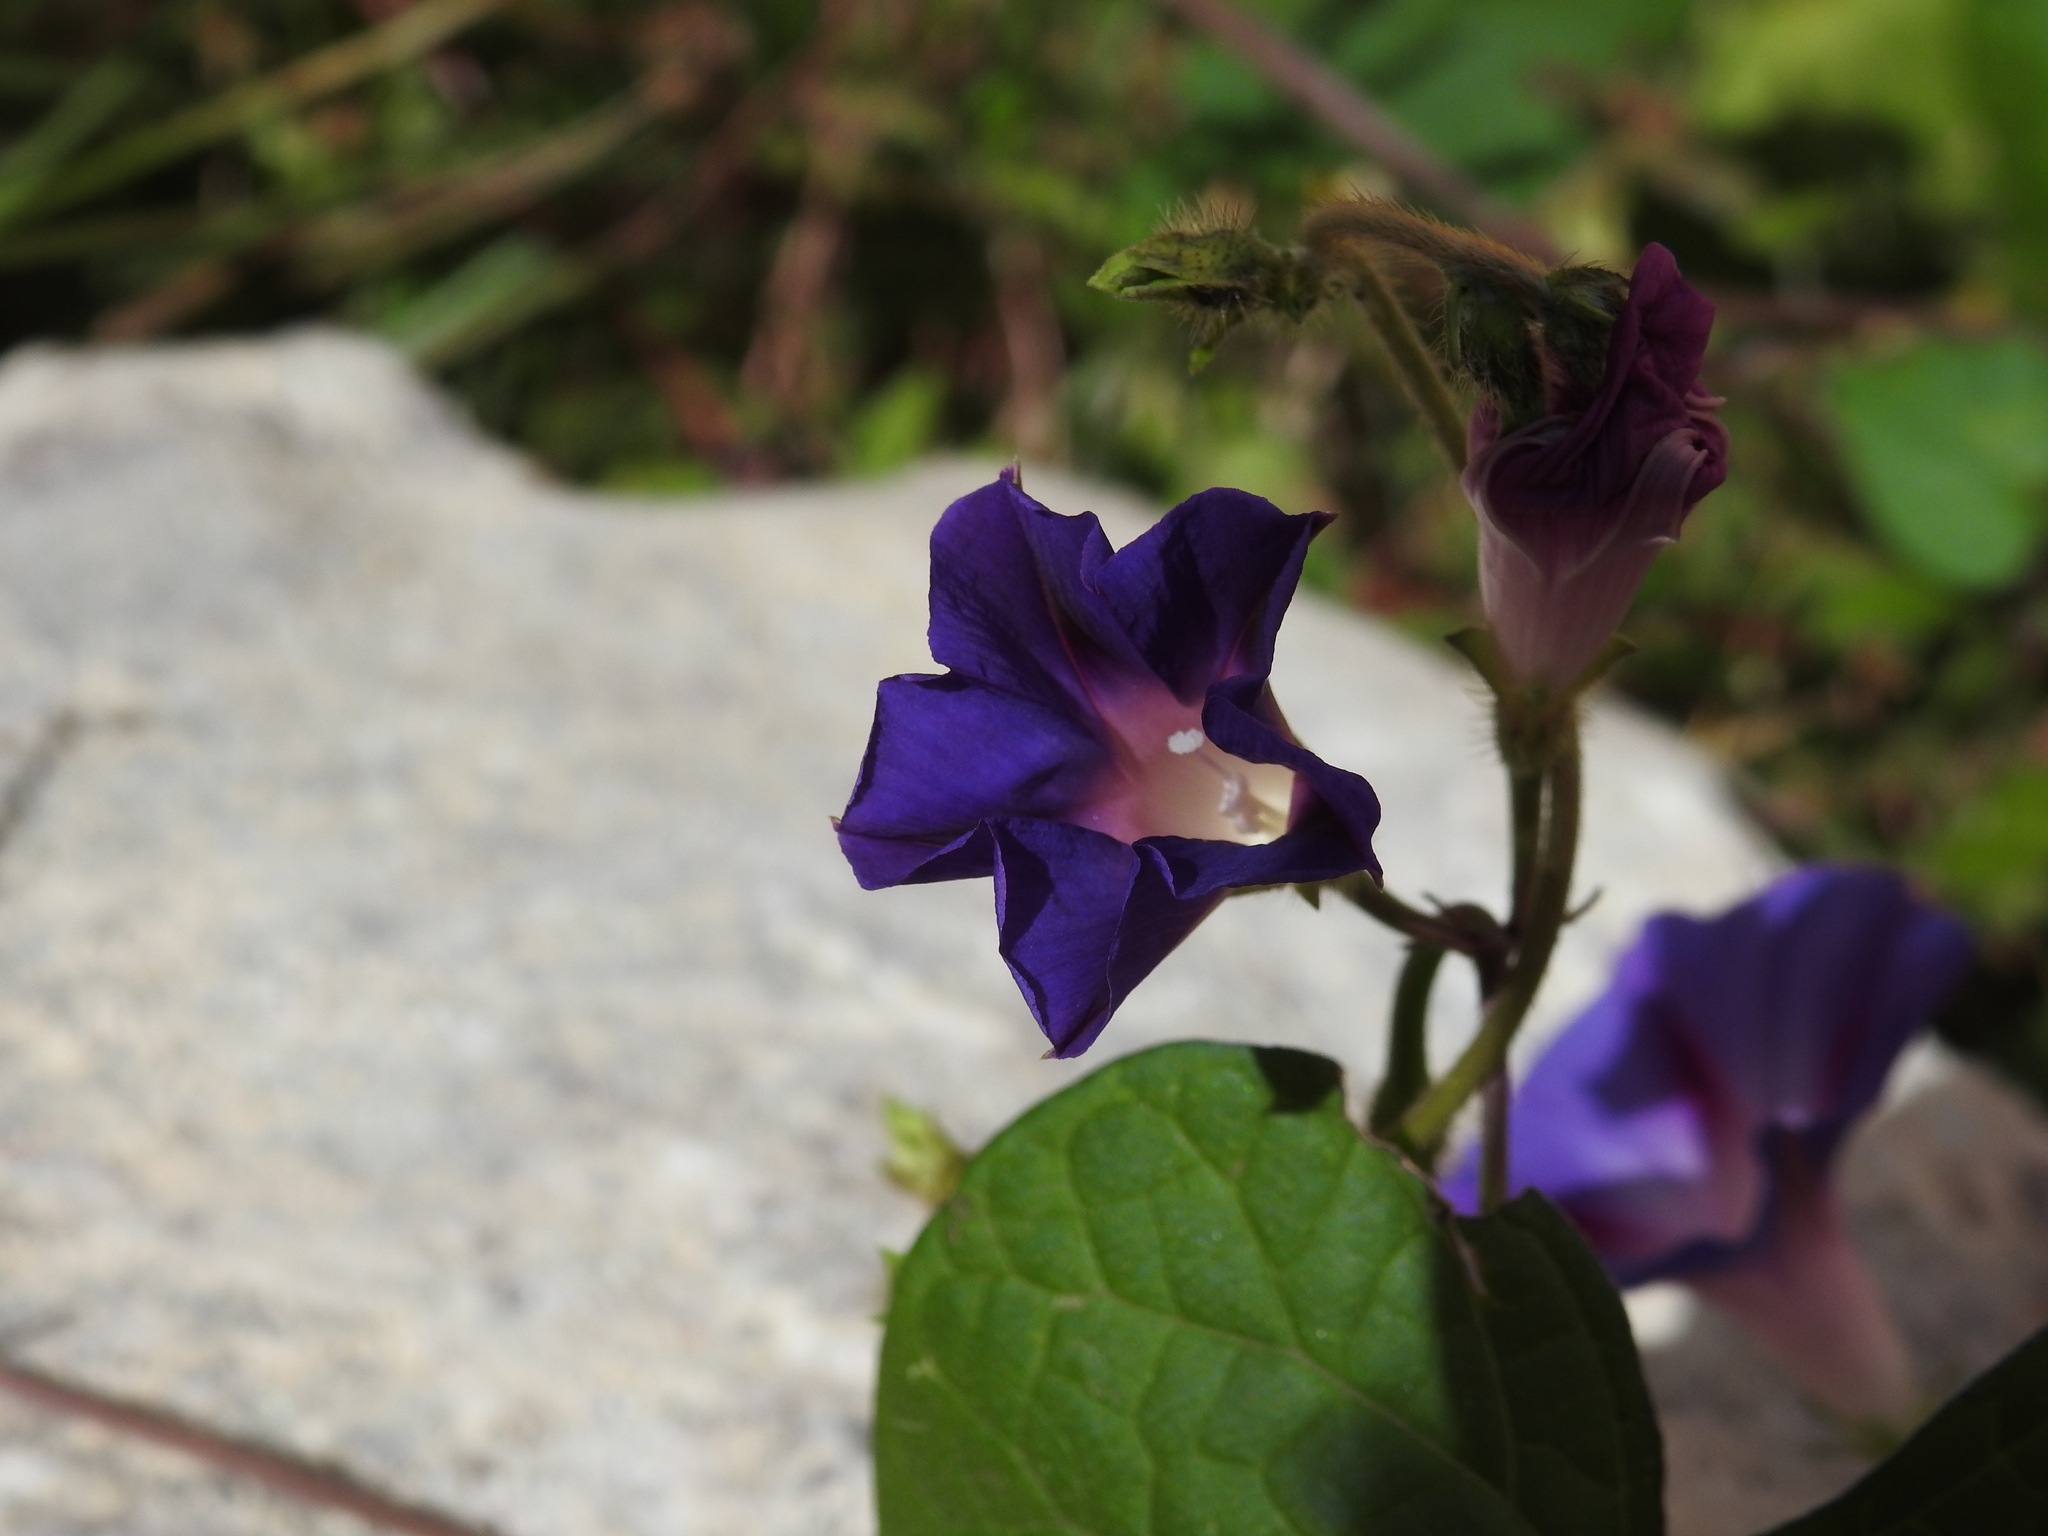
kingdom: Plantae
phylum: Tracheophyta
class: Magnoliopsida
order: Solanales
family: Convolvulaceae
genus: Ipomoea
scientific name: Ipomoea purpurea
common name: Common morning-glory
